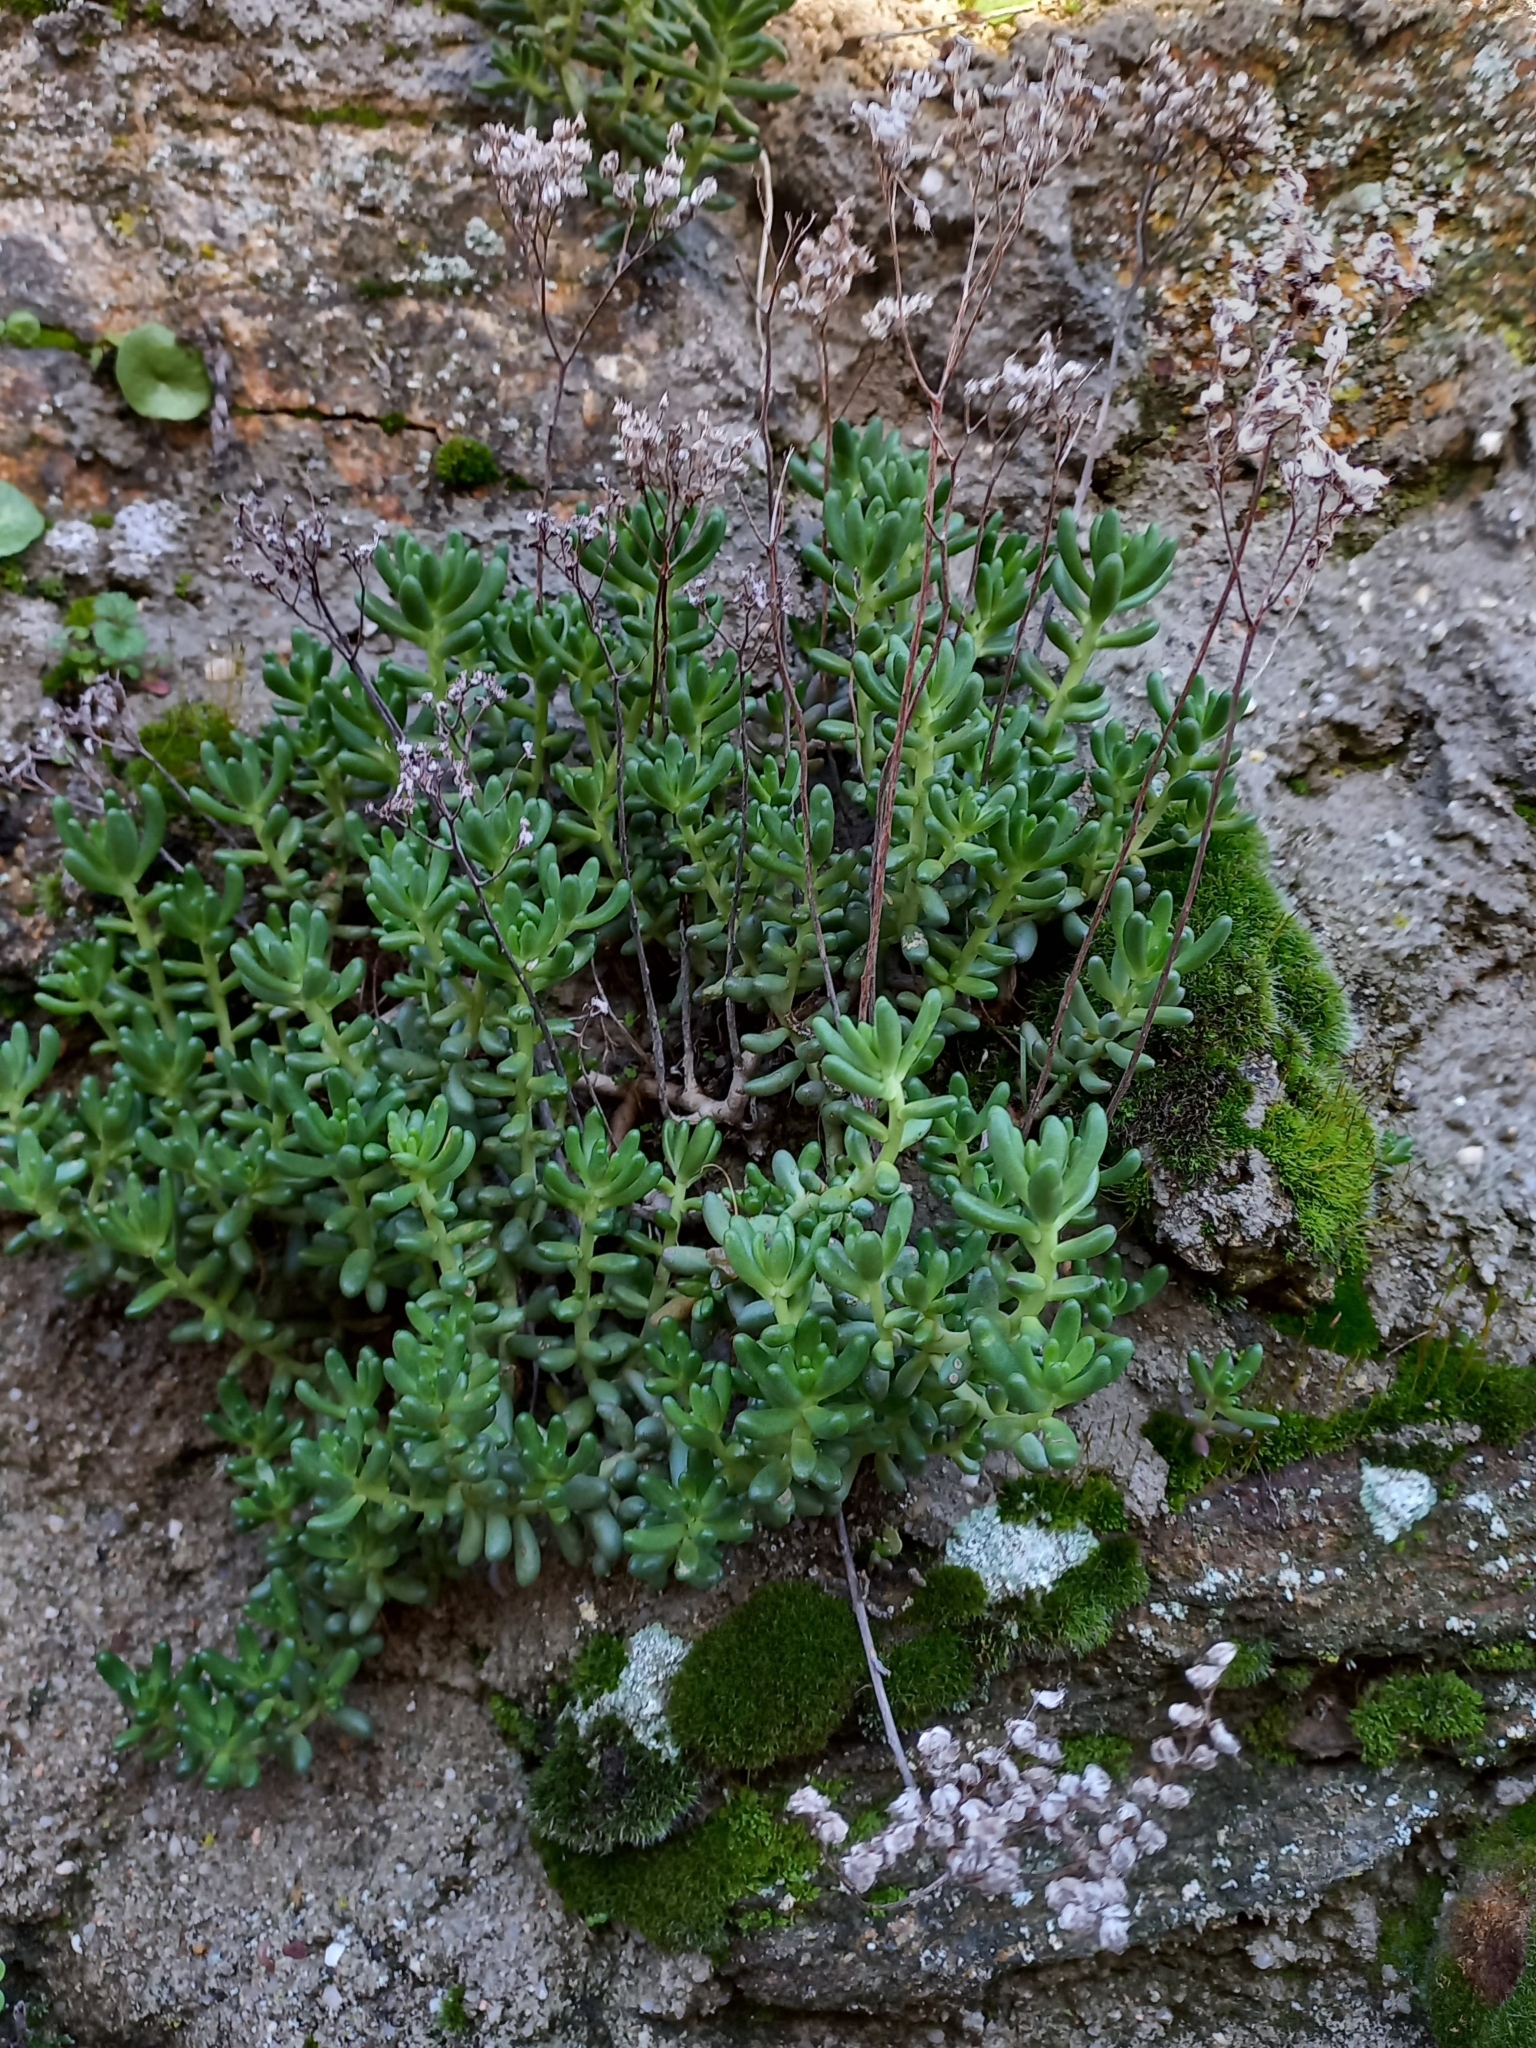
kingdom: Plantae
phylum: Tracheophyta
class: Magnoliopsida
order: Saxifragales
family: Crassulaceae
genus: Sedum
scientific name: Sedum album
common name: White stonecrop
